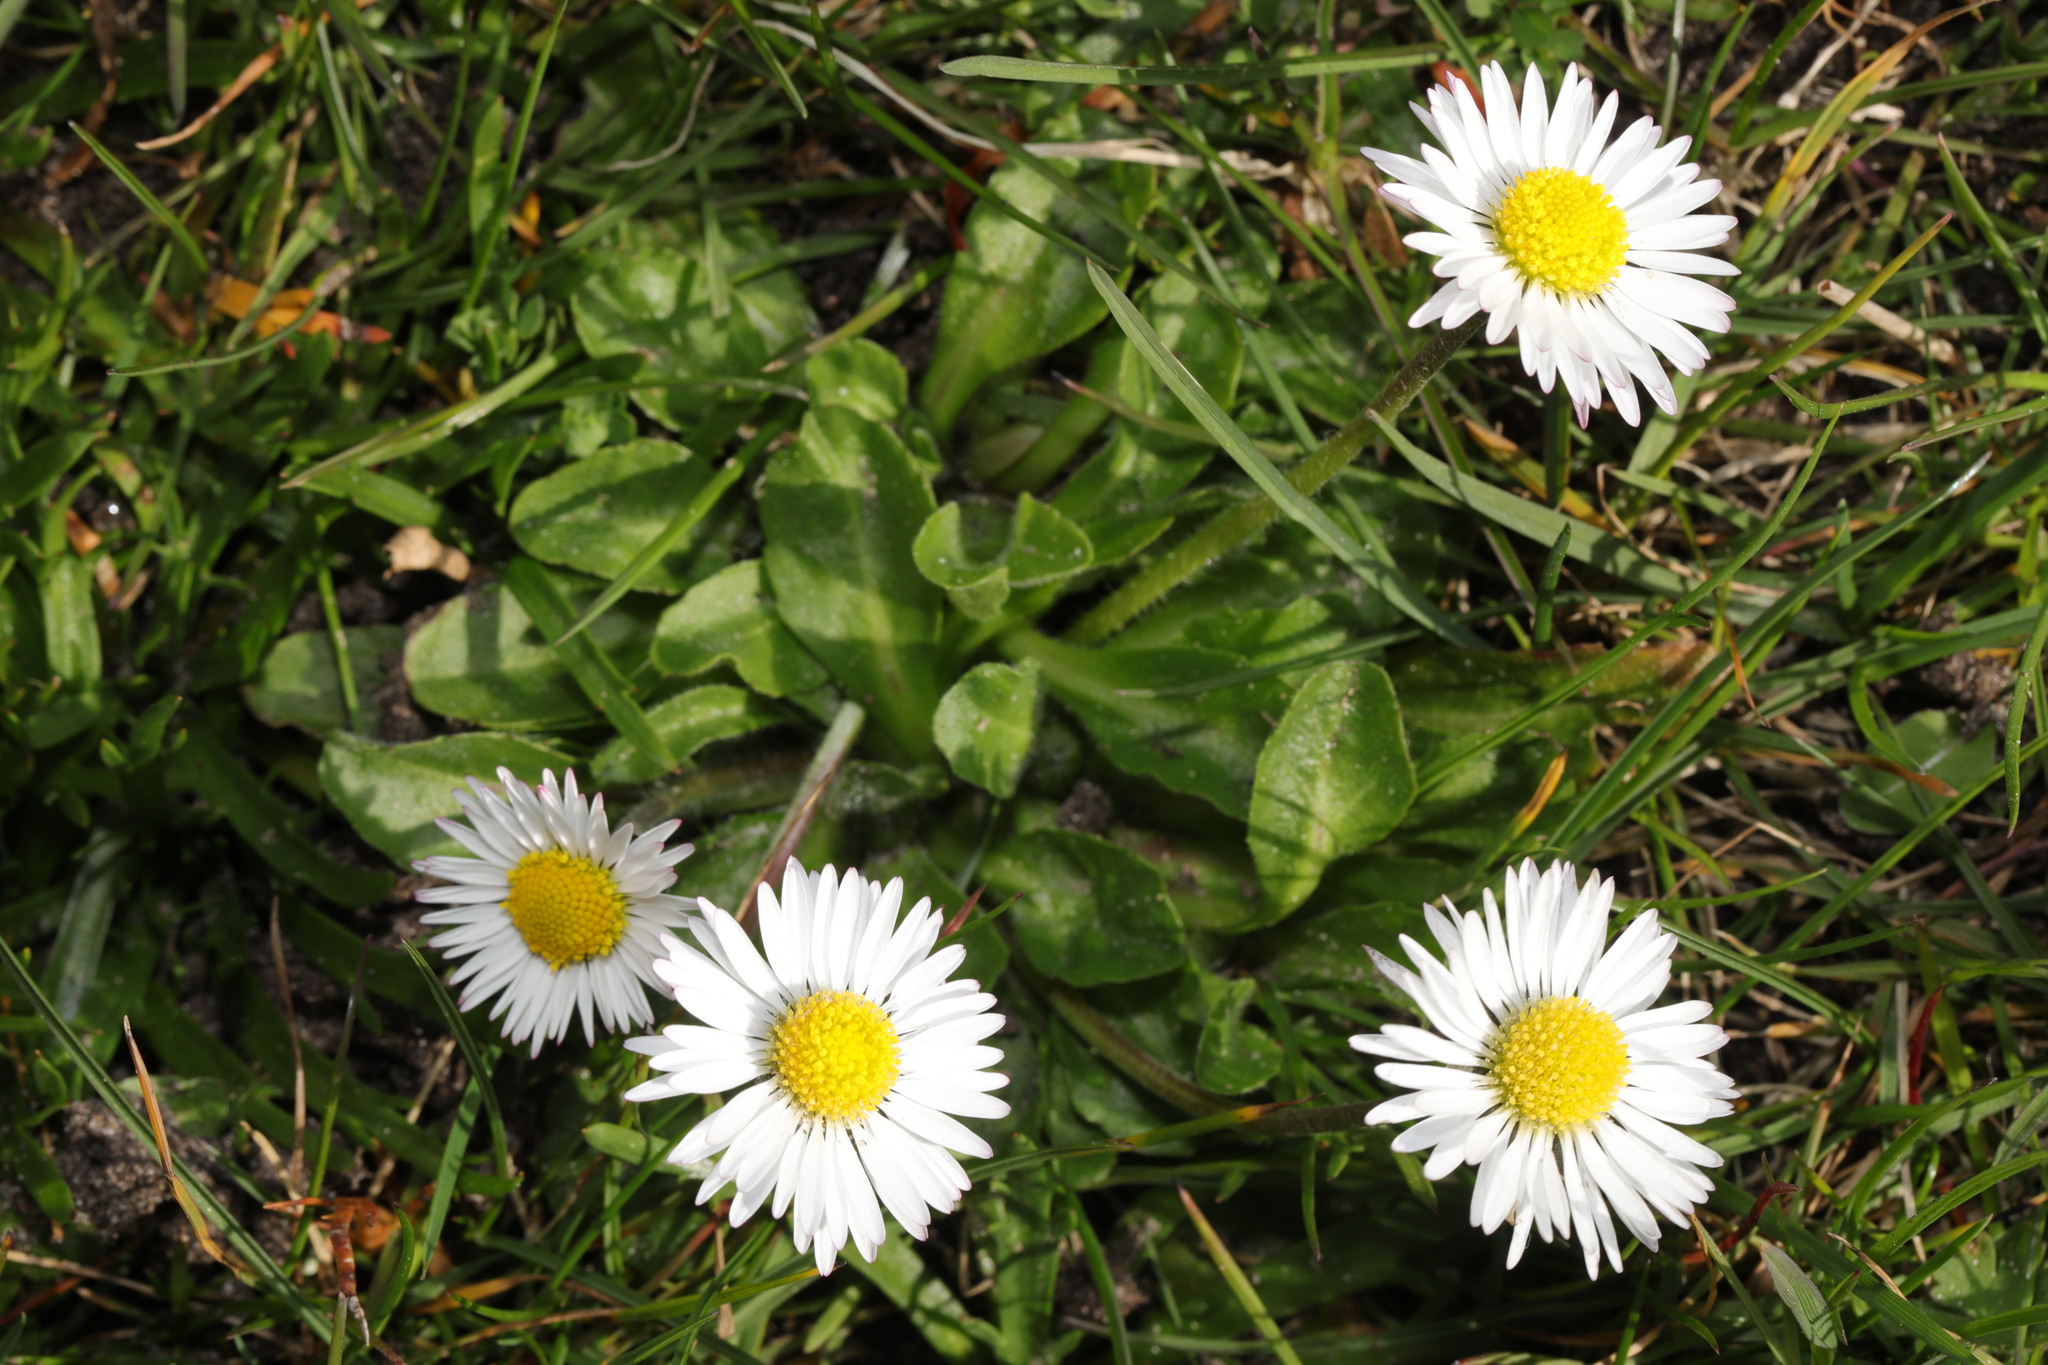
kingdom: Plantae
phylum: Tracheophyta
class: Magnoliopsida
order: Asterales
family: Asteraceae
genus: Bellis
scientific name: Bellis perennis
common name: Lawndaisy
